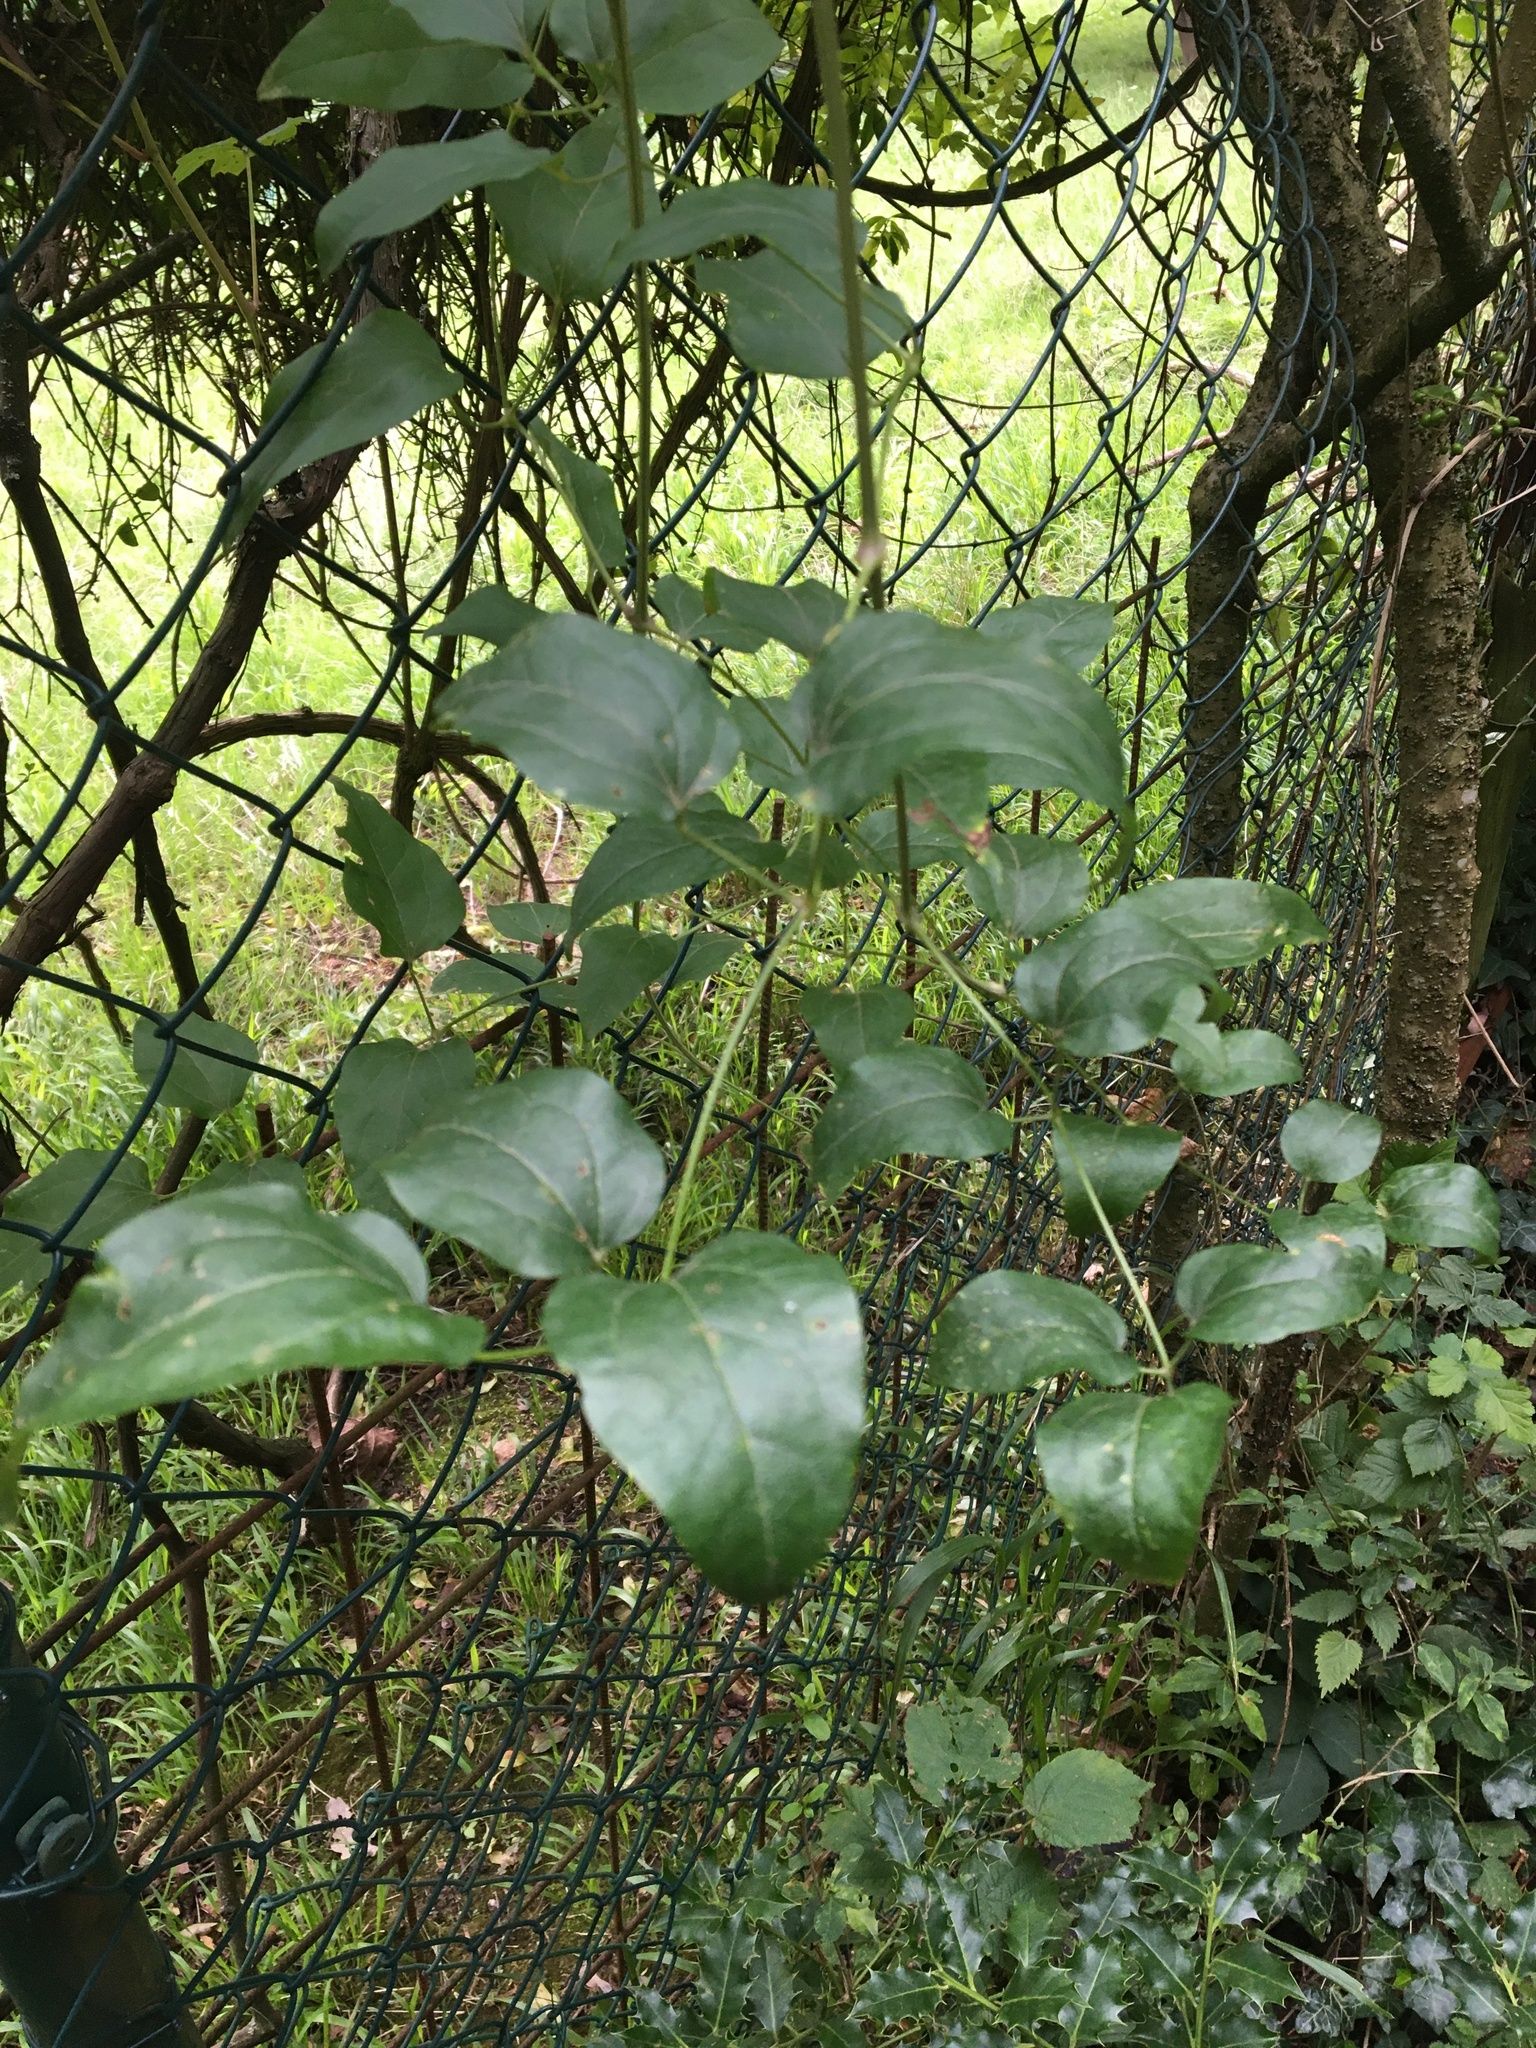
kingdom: Plantae
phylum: Tracheophyta
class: Magnoliopsida
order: Ranunculales
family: Ranunculaceae
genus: Clematis
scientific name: Clematis vitalba
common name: Evergreen clematis
